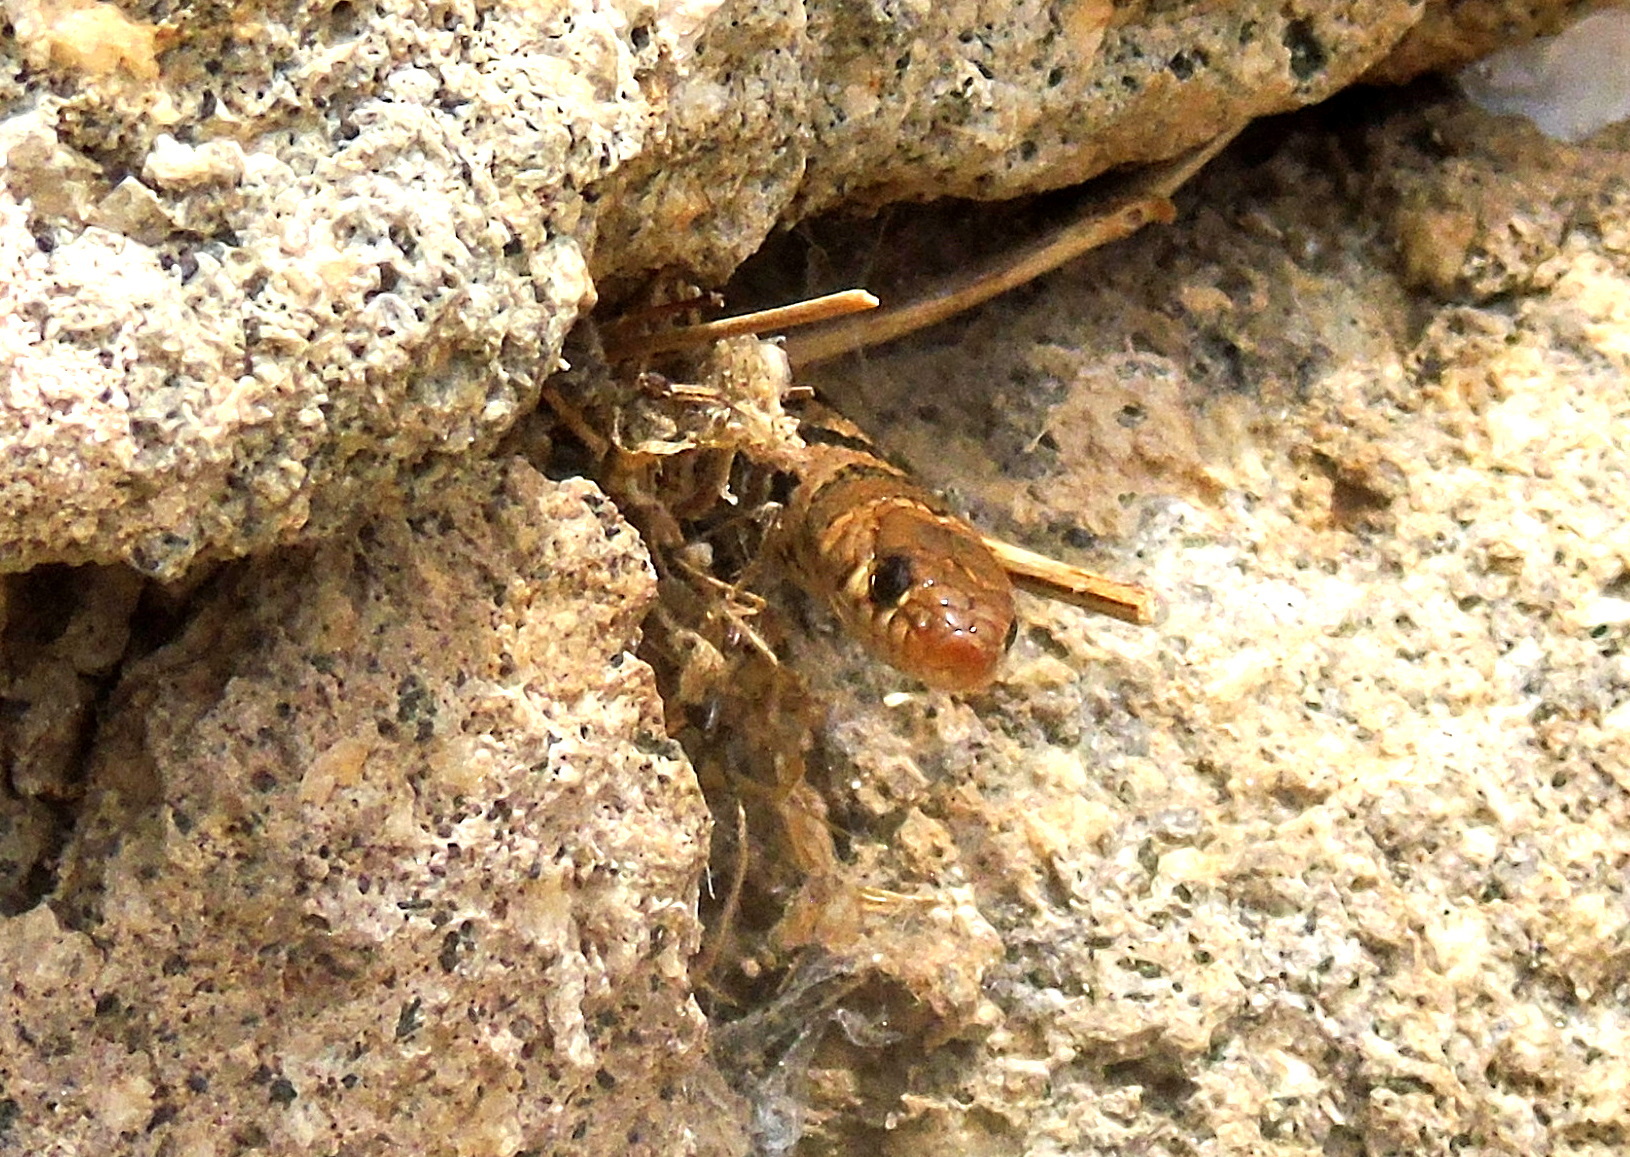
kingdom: Animalia
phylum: Chordata
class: Squamata
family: Colubridae
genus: Eirenis
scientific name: Eirenis modestus
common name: Ring-headed dwarf snake
